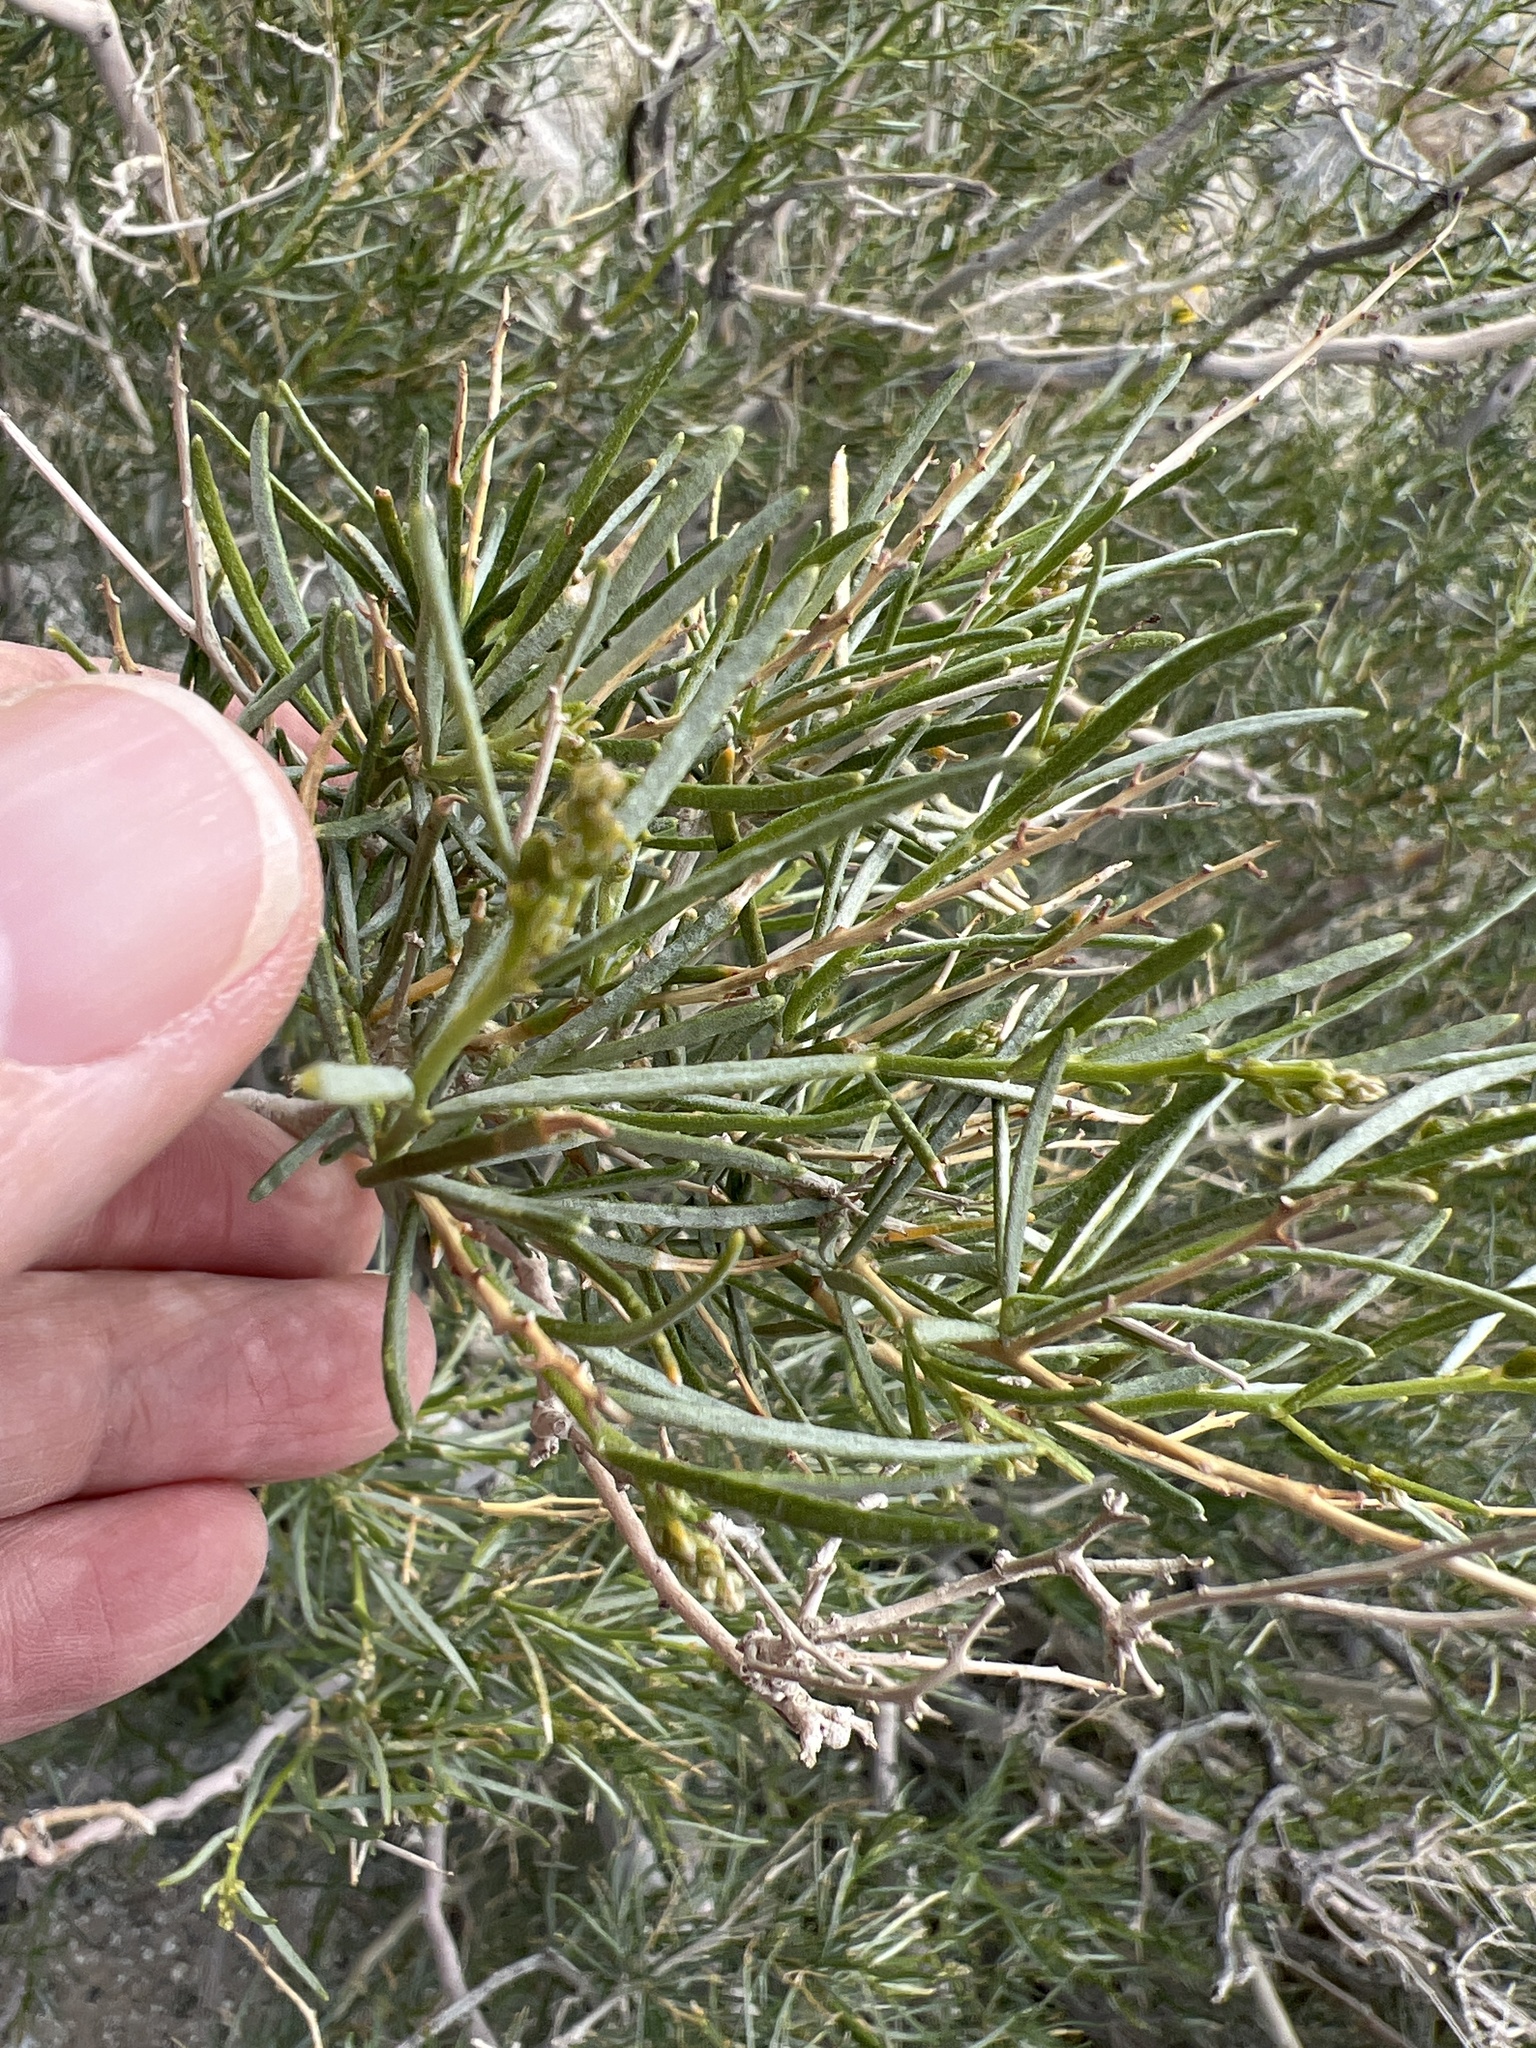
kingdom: Plantae
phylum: Tracheophyta
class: Magnoliopsida
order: Fabales
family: Fabaceae
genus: Psorothamnus
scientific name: Psorothamnus schottii
